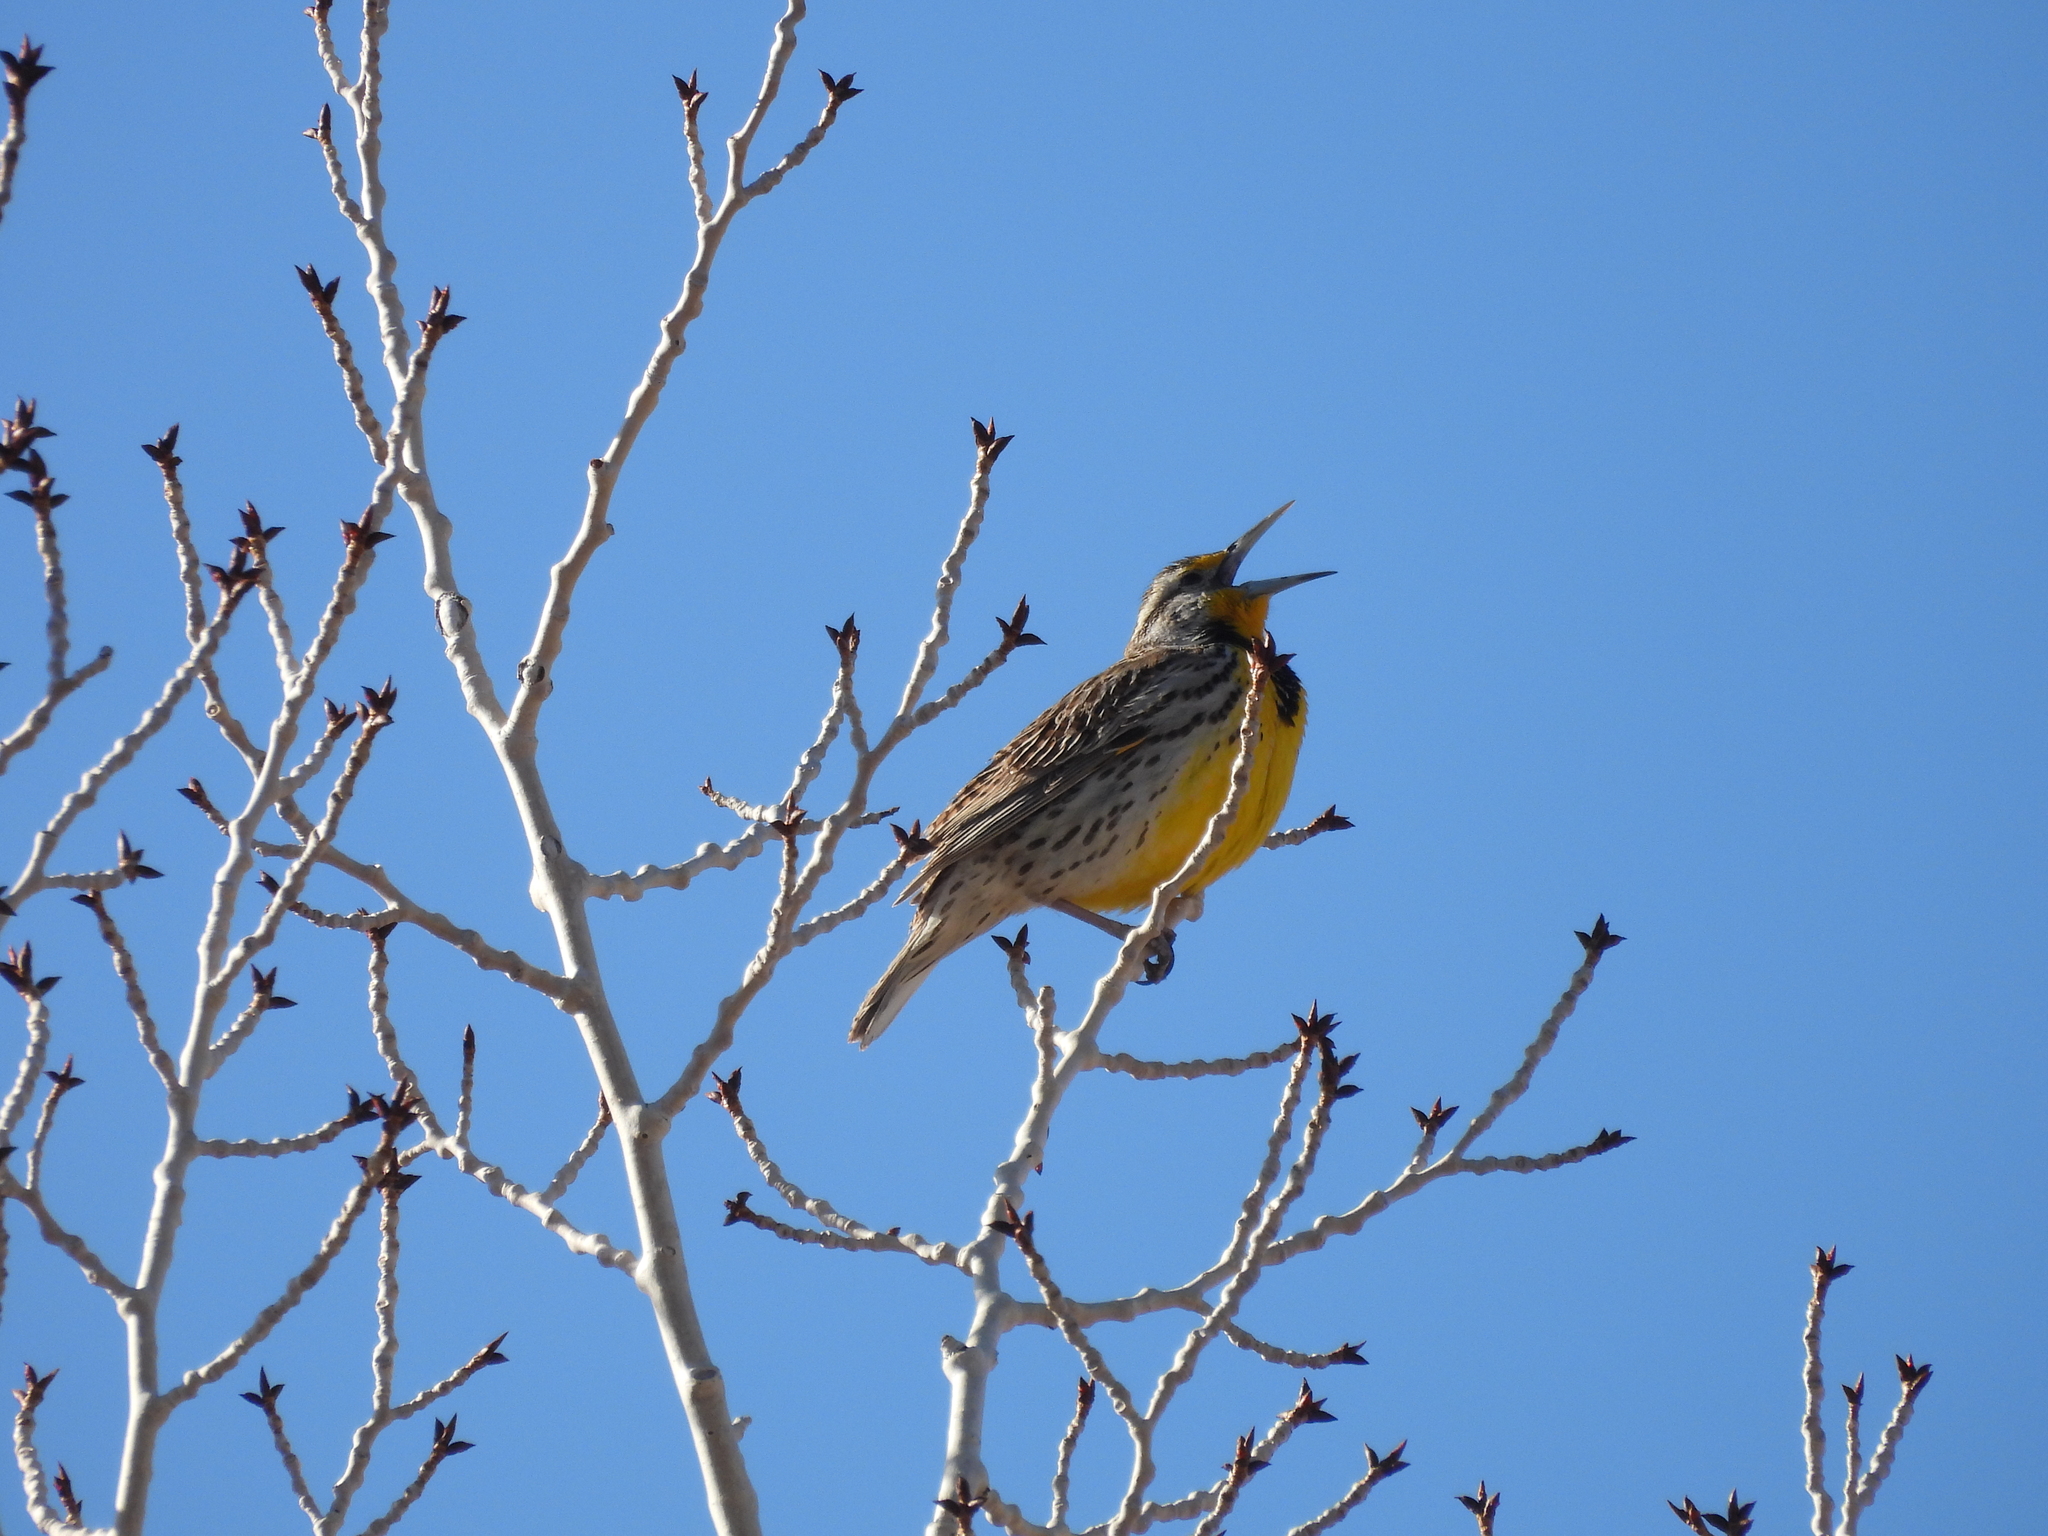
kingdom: Animalia
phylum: Chordata
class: Aves
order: Passeriformes
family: Icteridae
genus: Sturnella
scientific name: Sturnella neglecta
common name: Western meadowlark
